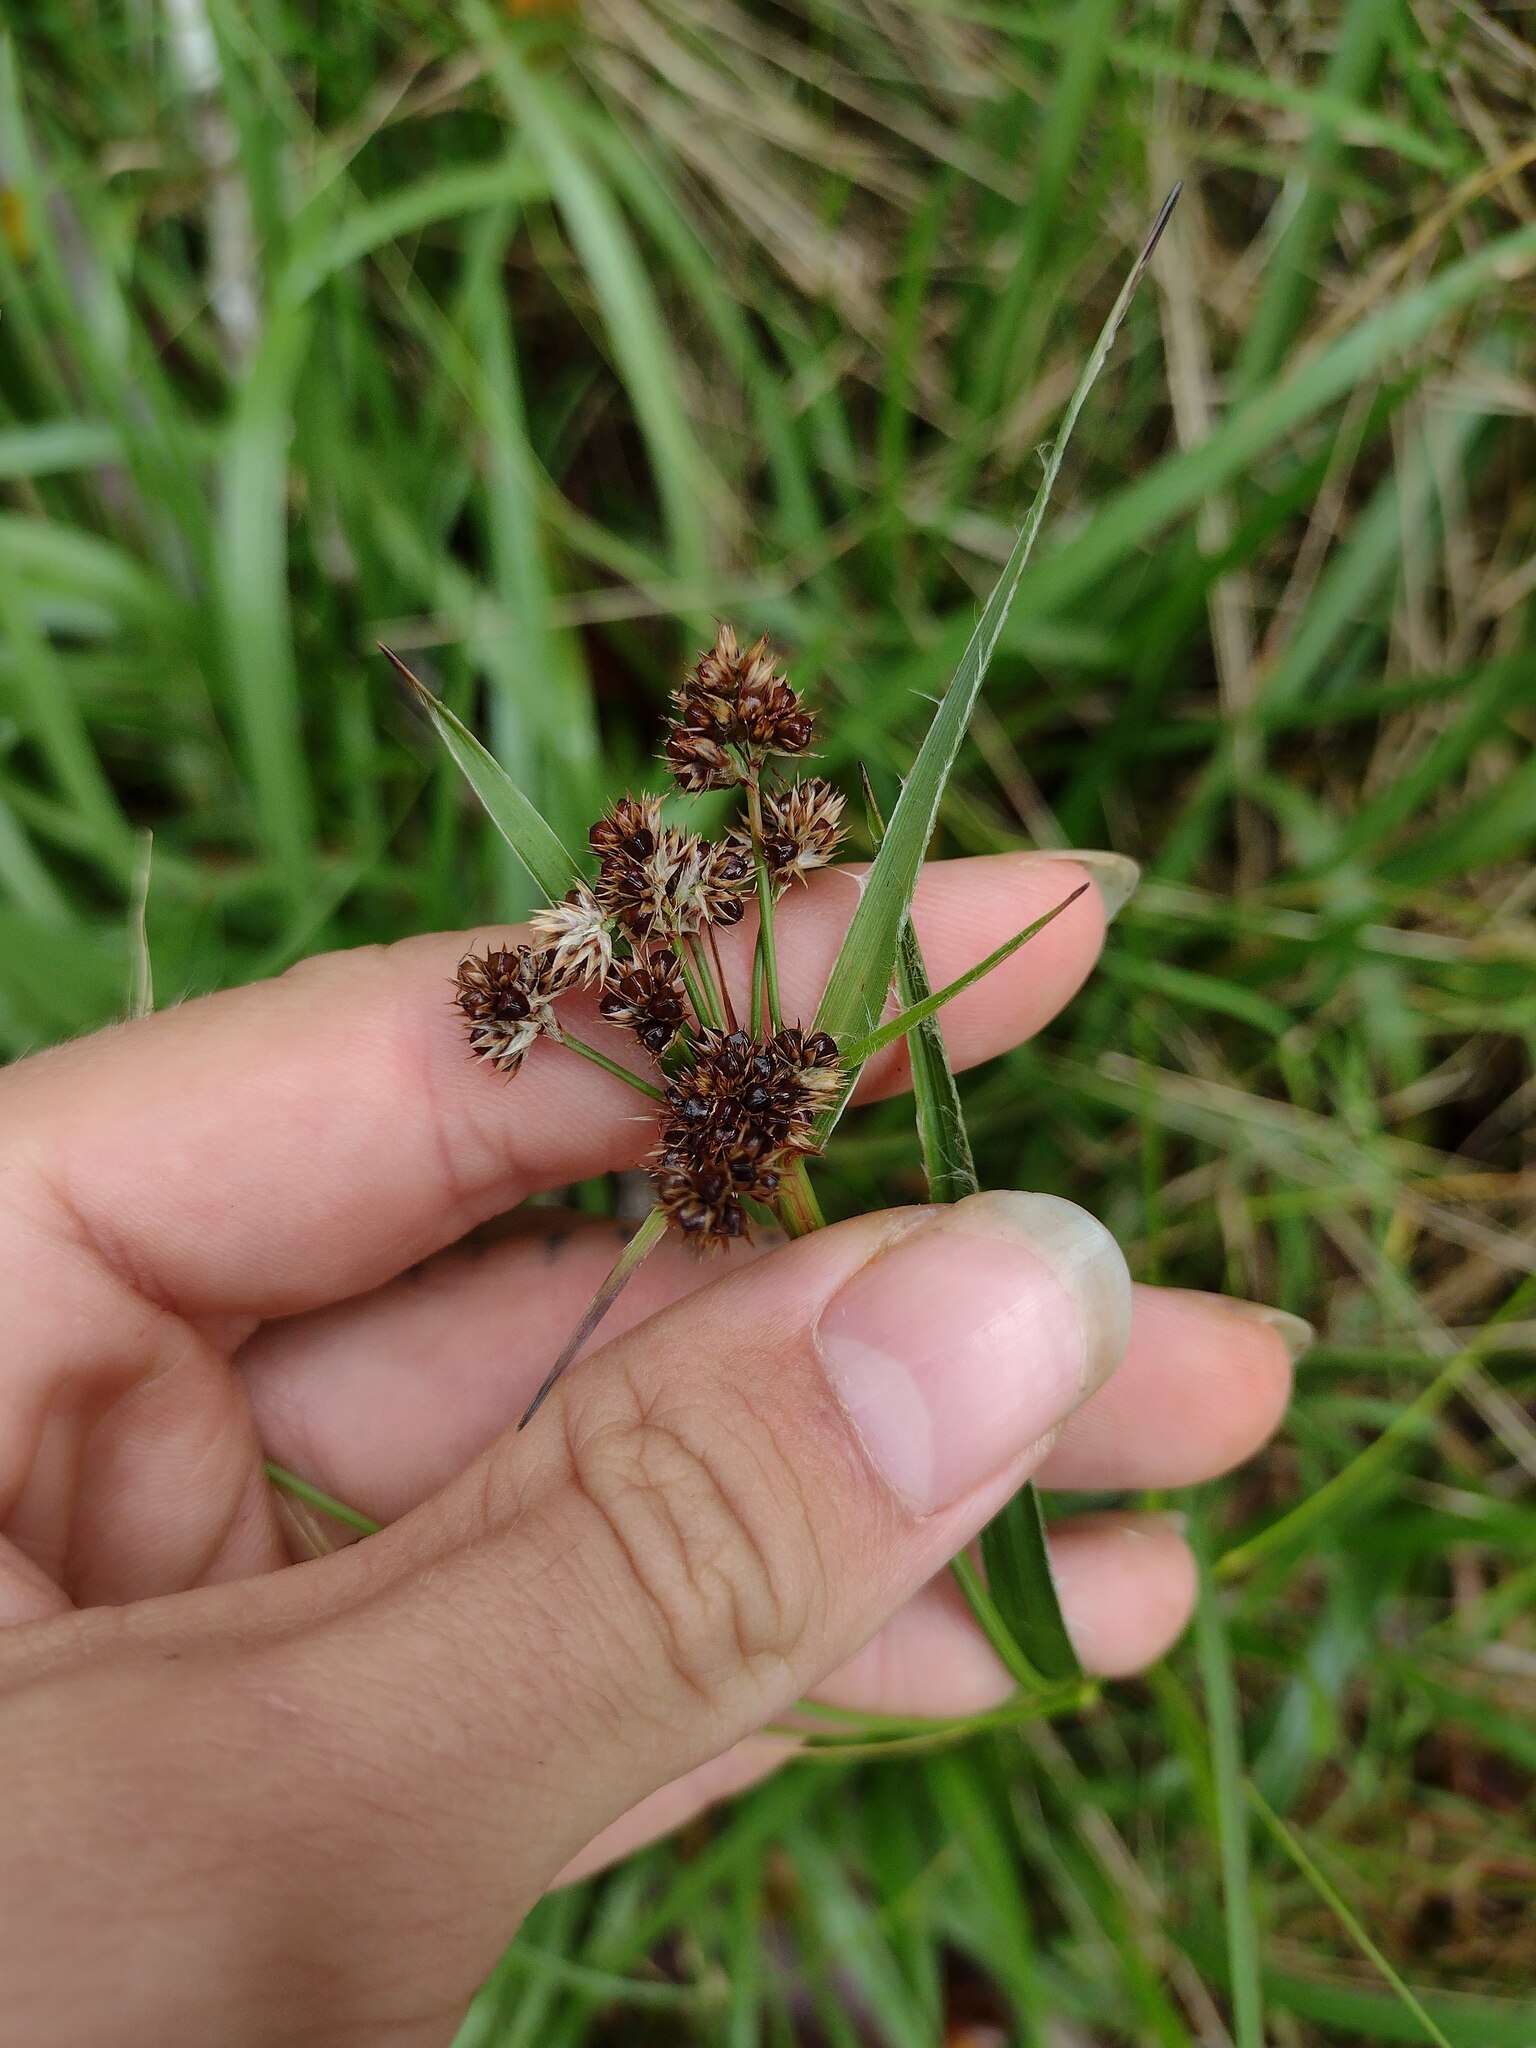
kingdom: Plantae
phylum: Tracheophyta
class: Liliopsida
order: Poales
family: Juncaceae
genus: Luzula
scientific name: Luzula hawaiiensis
